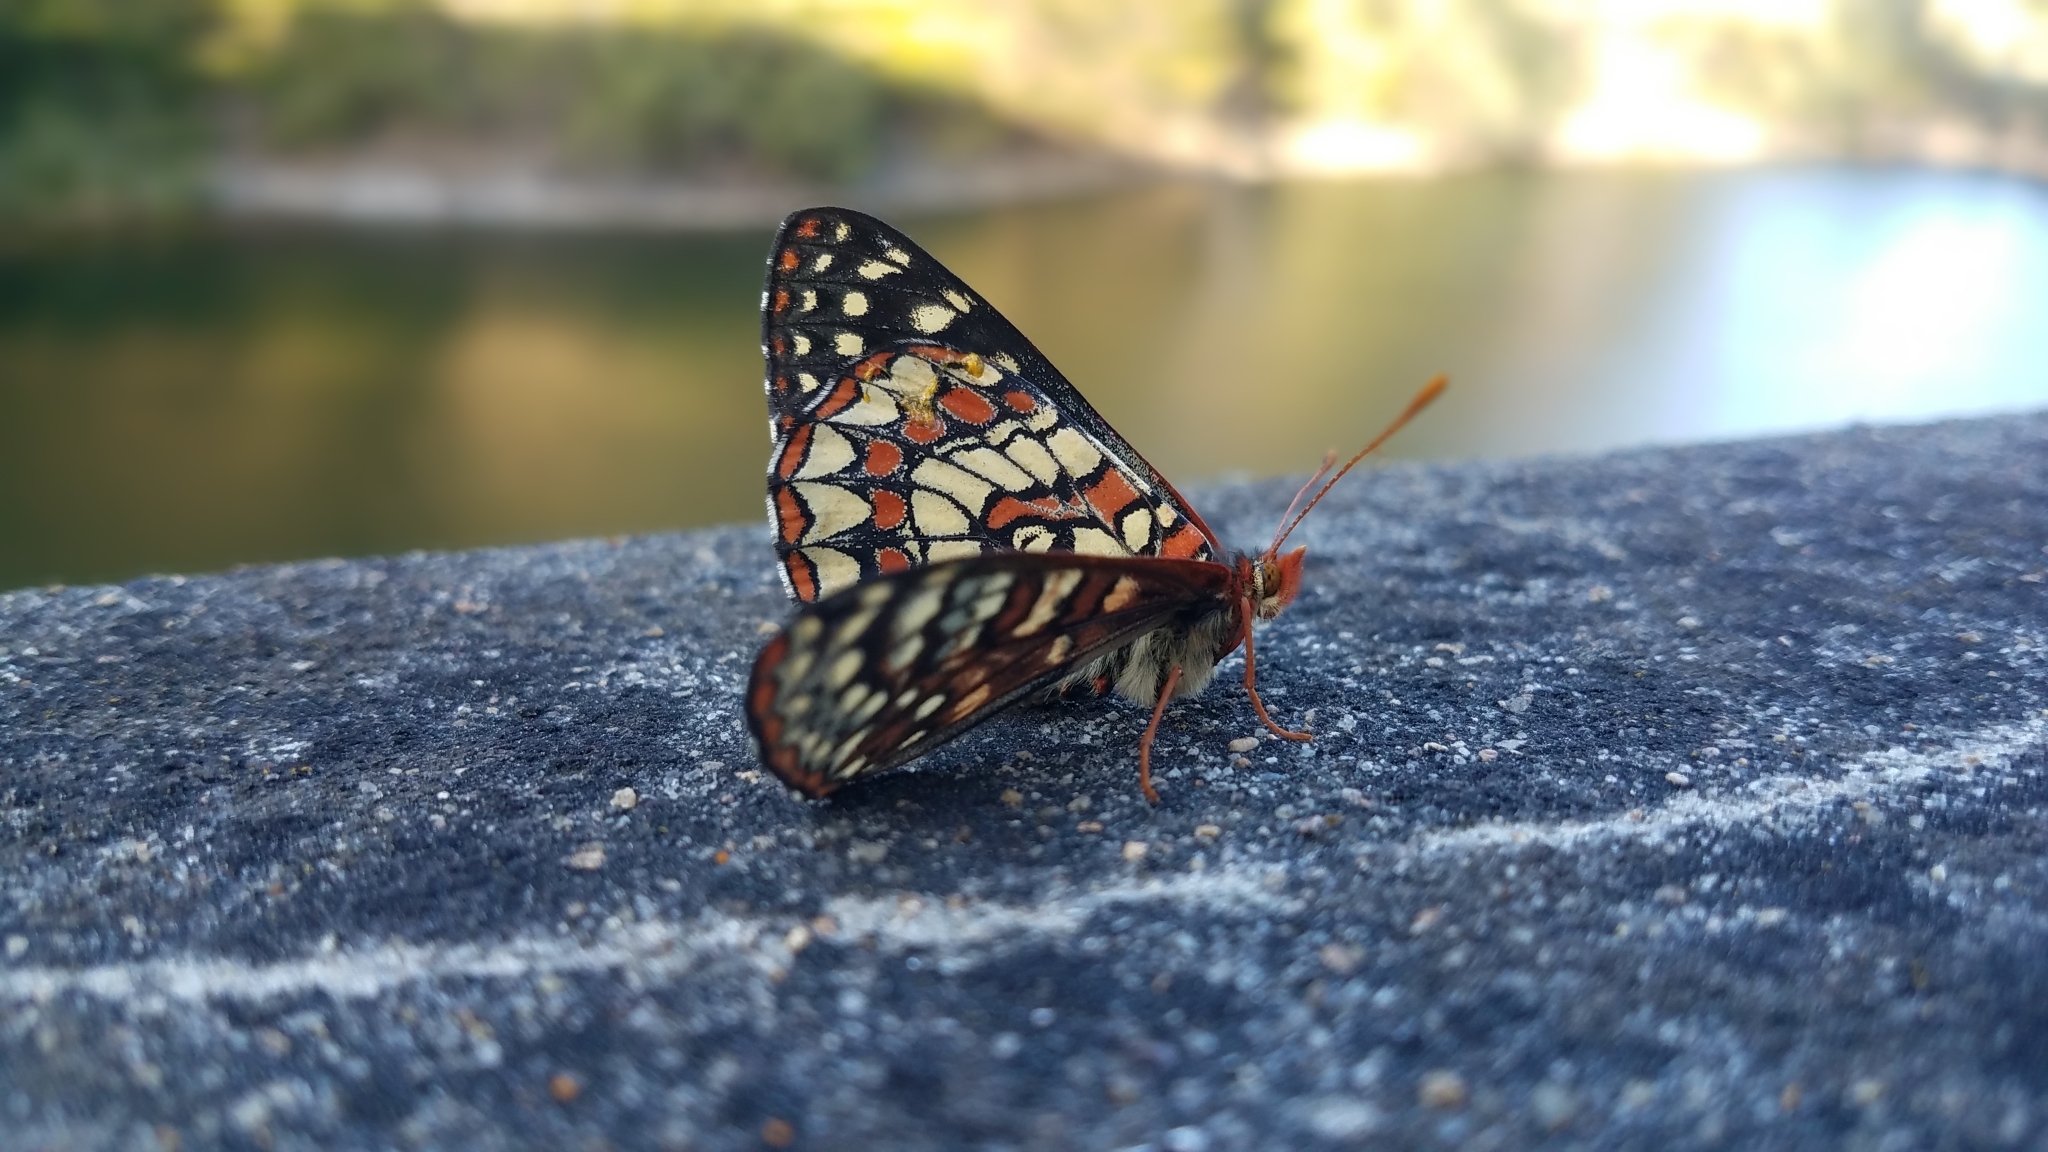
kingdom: Animalia
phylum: Arthropoda
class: Insecta
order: Lepidoptera
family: Nymphalidae
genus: Occidryas
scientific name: Occidryas chalcedona
